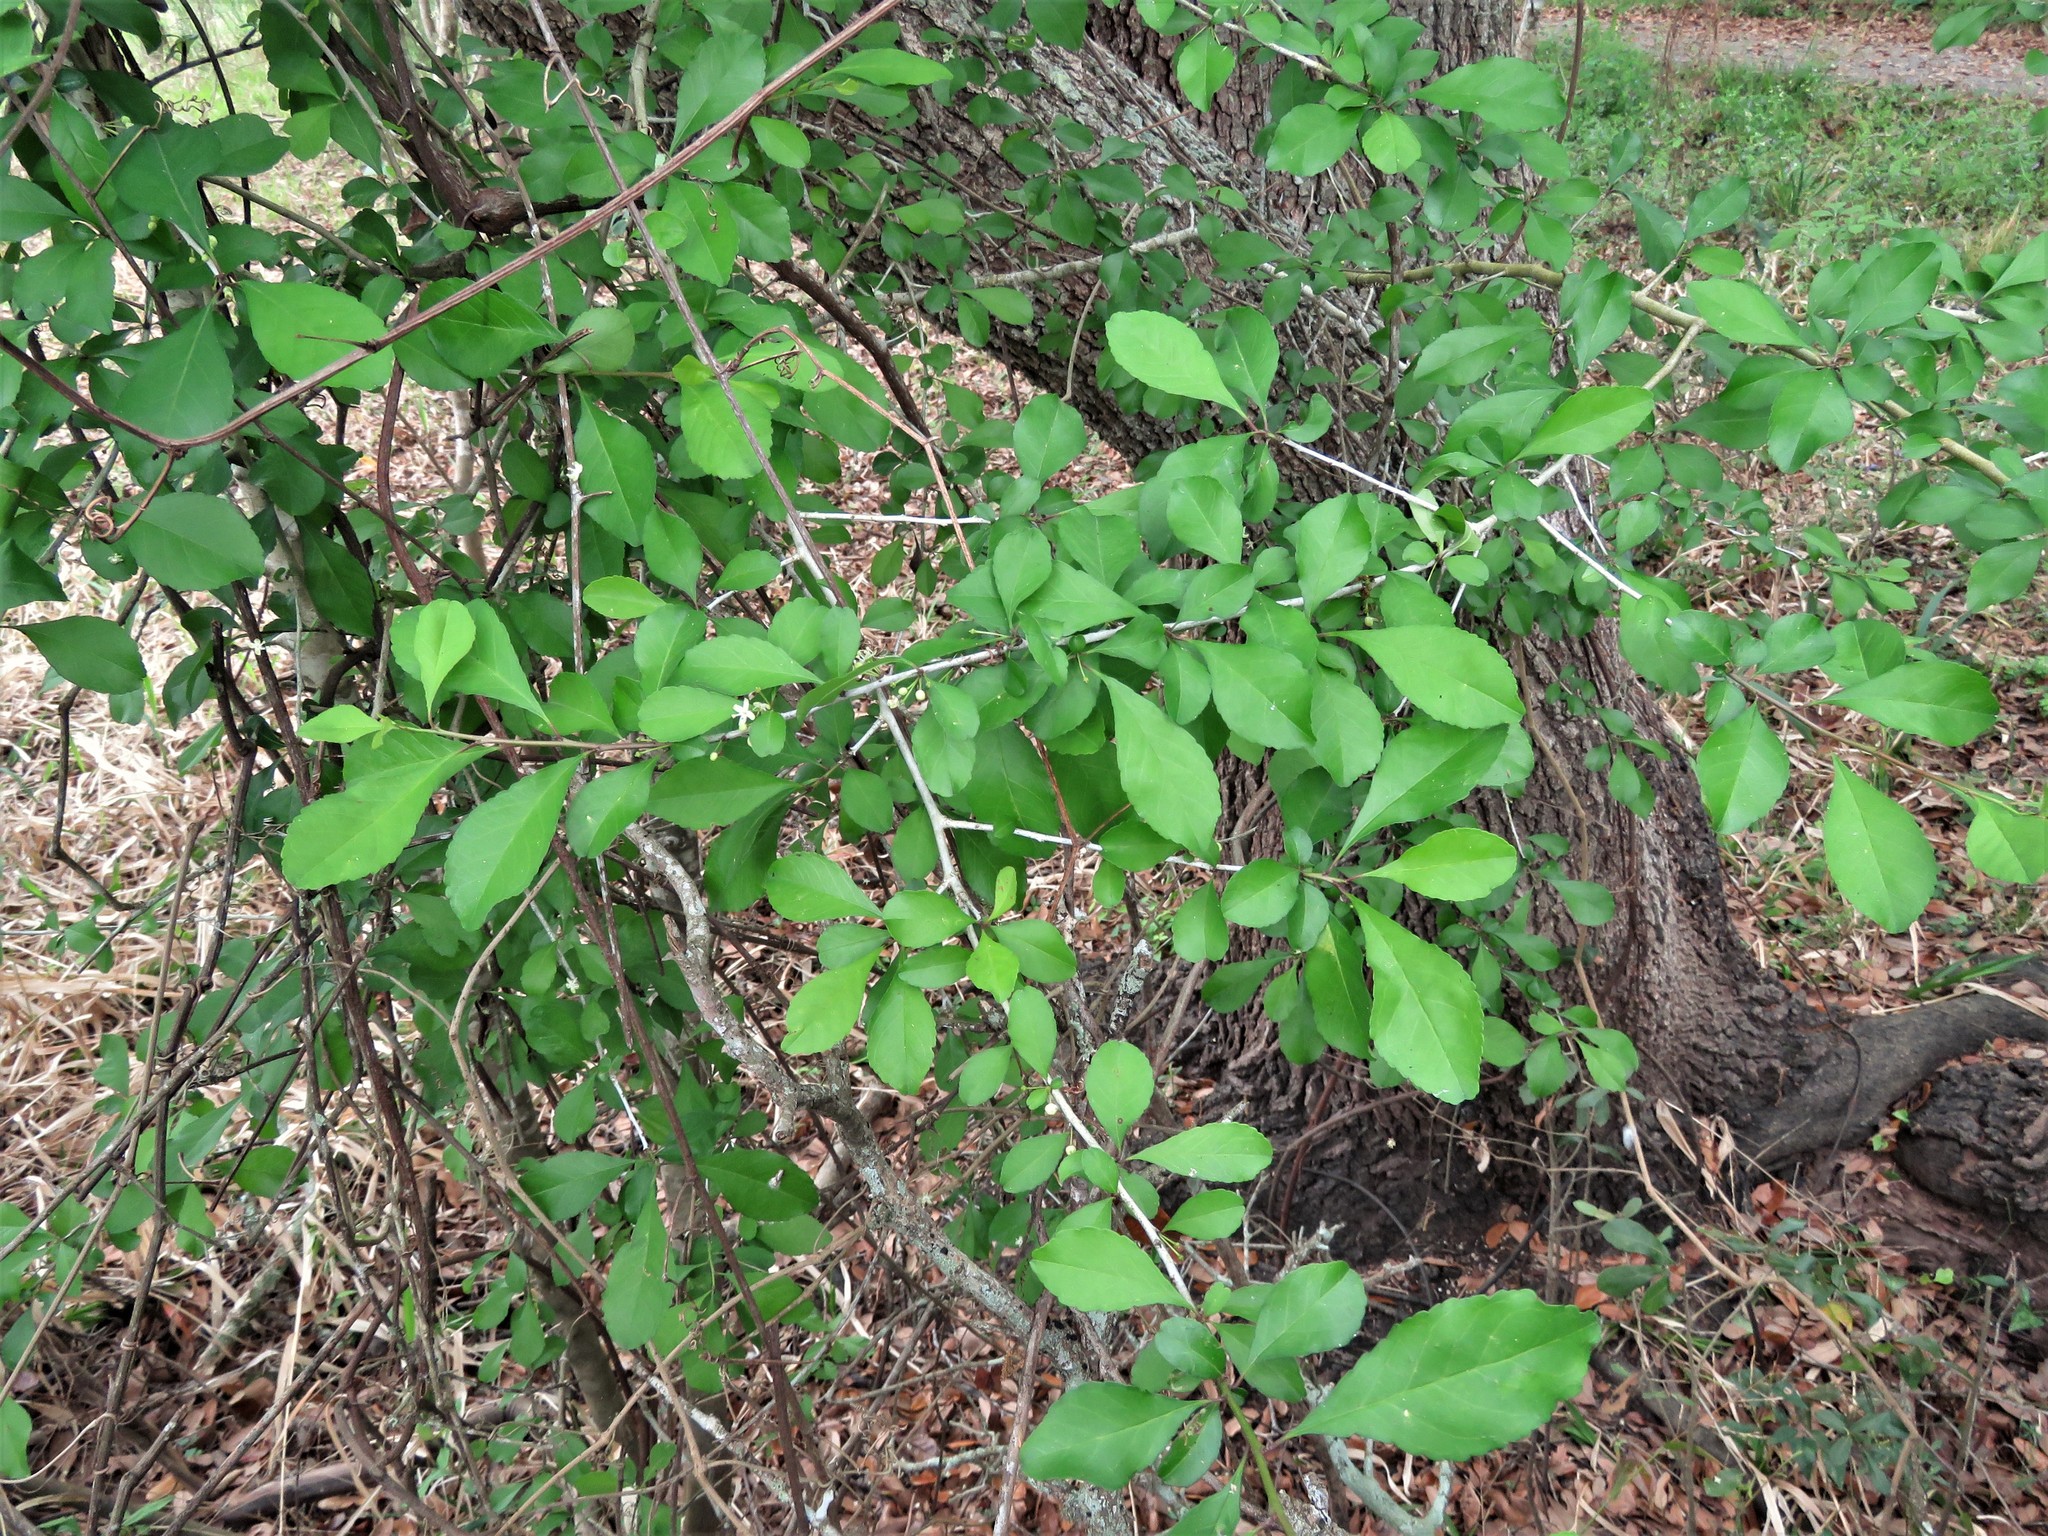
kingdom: Plantae
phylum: Tracheophyta
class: Magnoliopsida
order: Aquifoliales
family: Aquifoliaceae
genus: Ilex
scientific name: Ilex decidua
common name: Possum-haw
